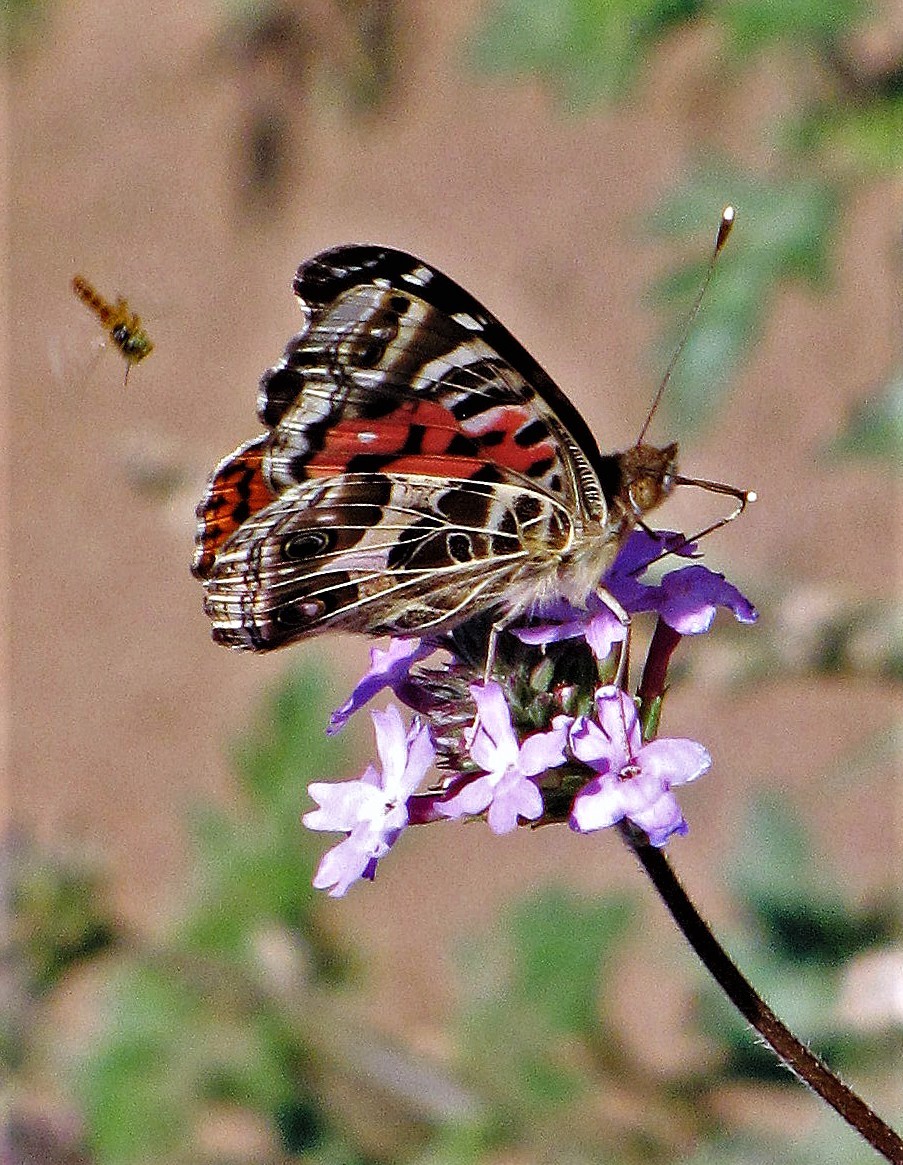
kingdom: Animalia
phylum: Arthropoda
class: Insecta
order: Lepidoptera
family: Nymphalidae
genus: Vanessa
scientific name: Vanessa braziliensis
